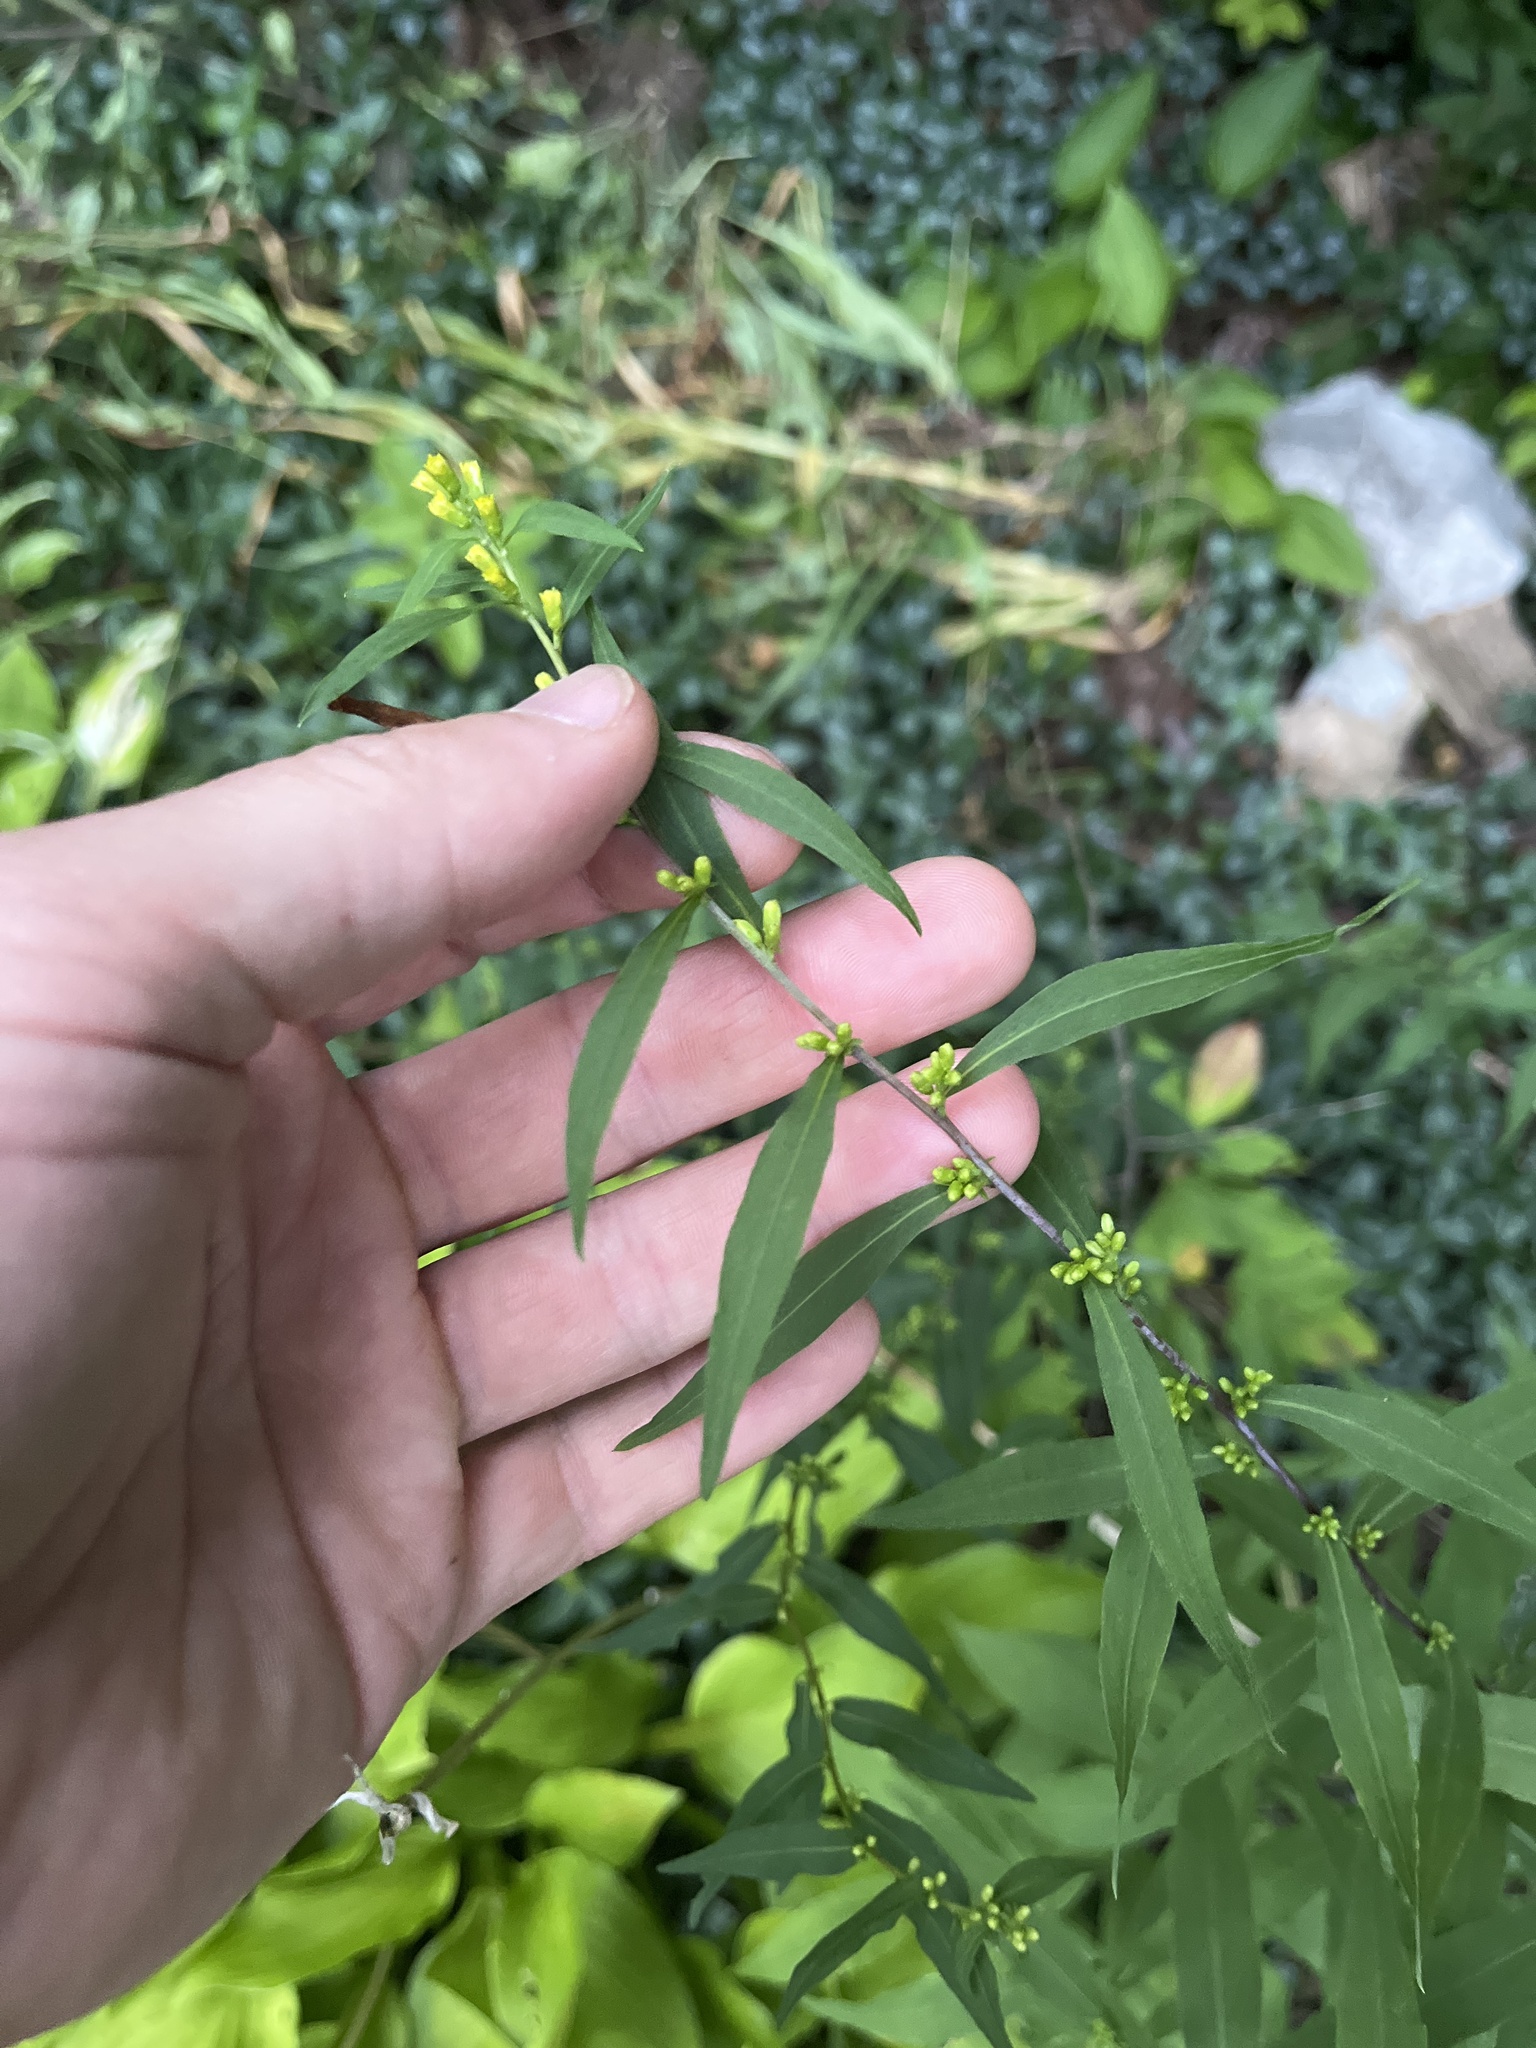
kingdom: Plantae
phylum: Tracheophyta
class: Magnoliopsida
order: Asterales
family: Asteraceae
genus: Solidago
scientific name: Solidago caesia
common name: Woodland goldenrod
